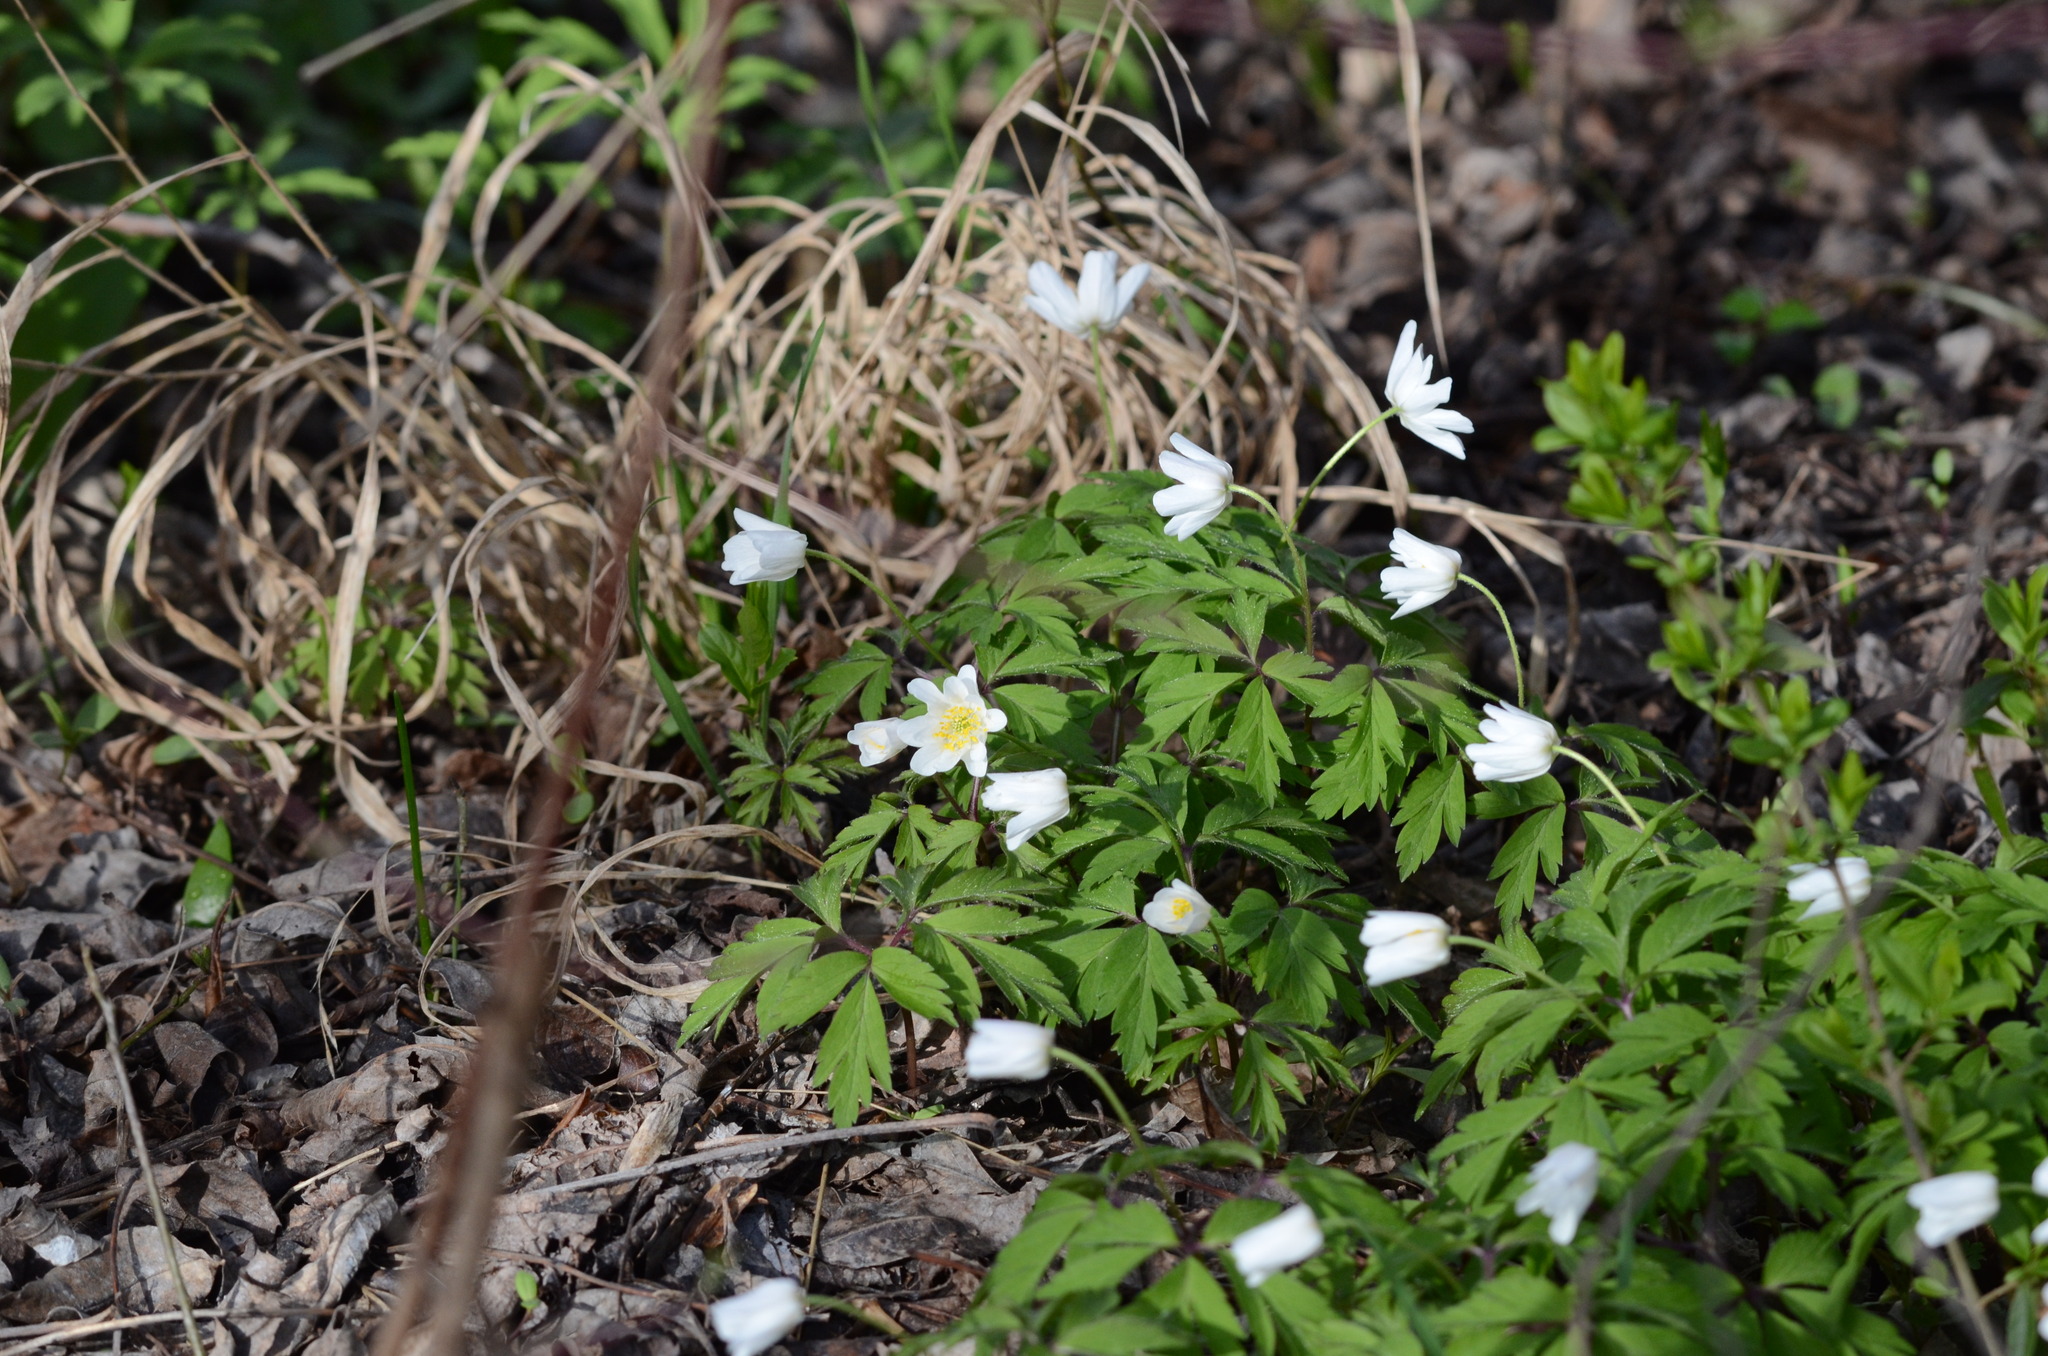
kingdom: Plantae
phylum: Tracheophyta
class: Magnoliopsida
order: Ranunculales
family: Ranunculaceae
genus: Anemone
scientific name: Anemone nemorosa
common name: Wood anemone
